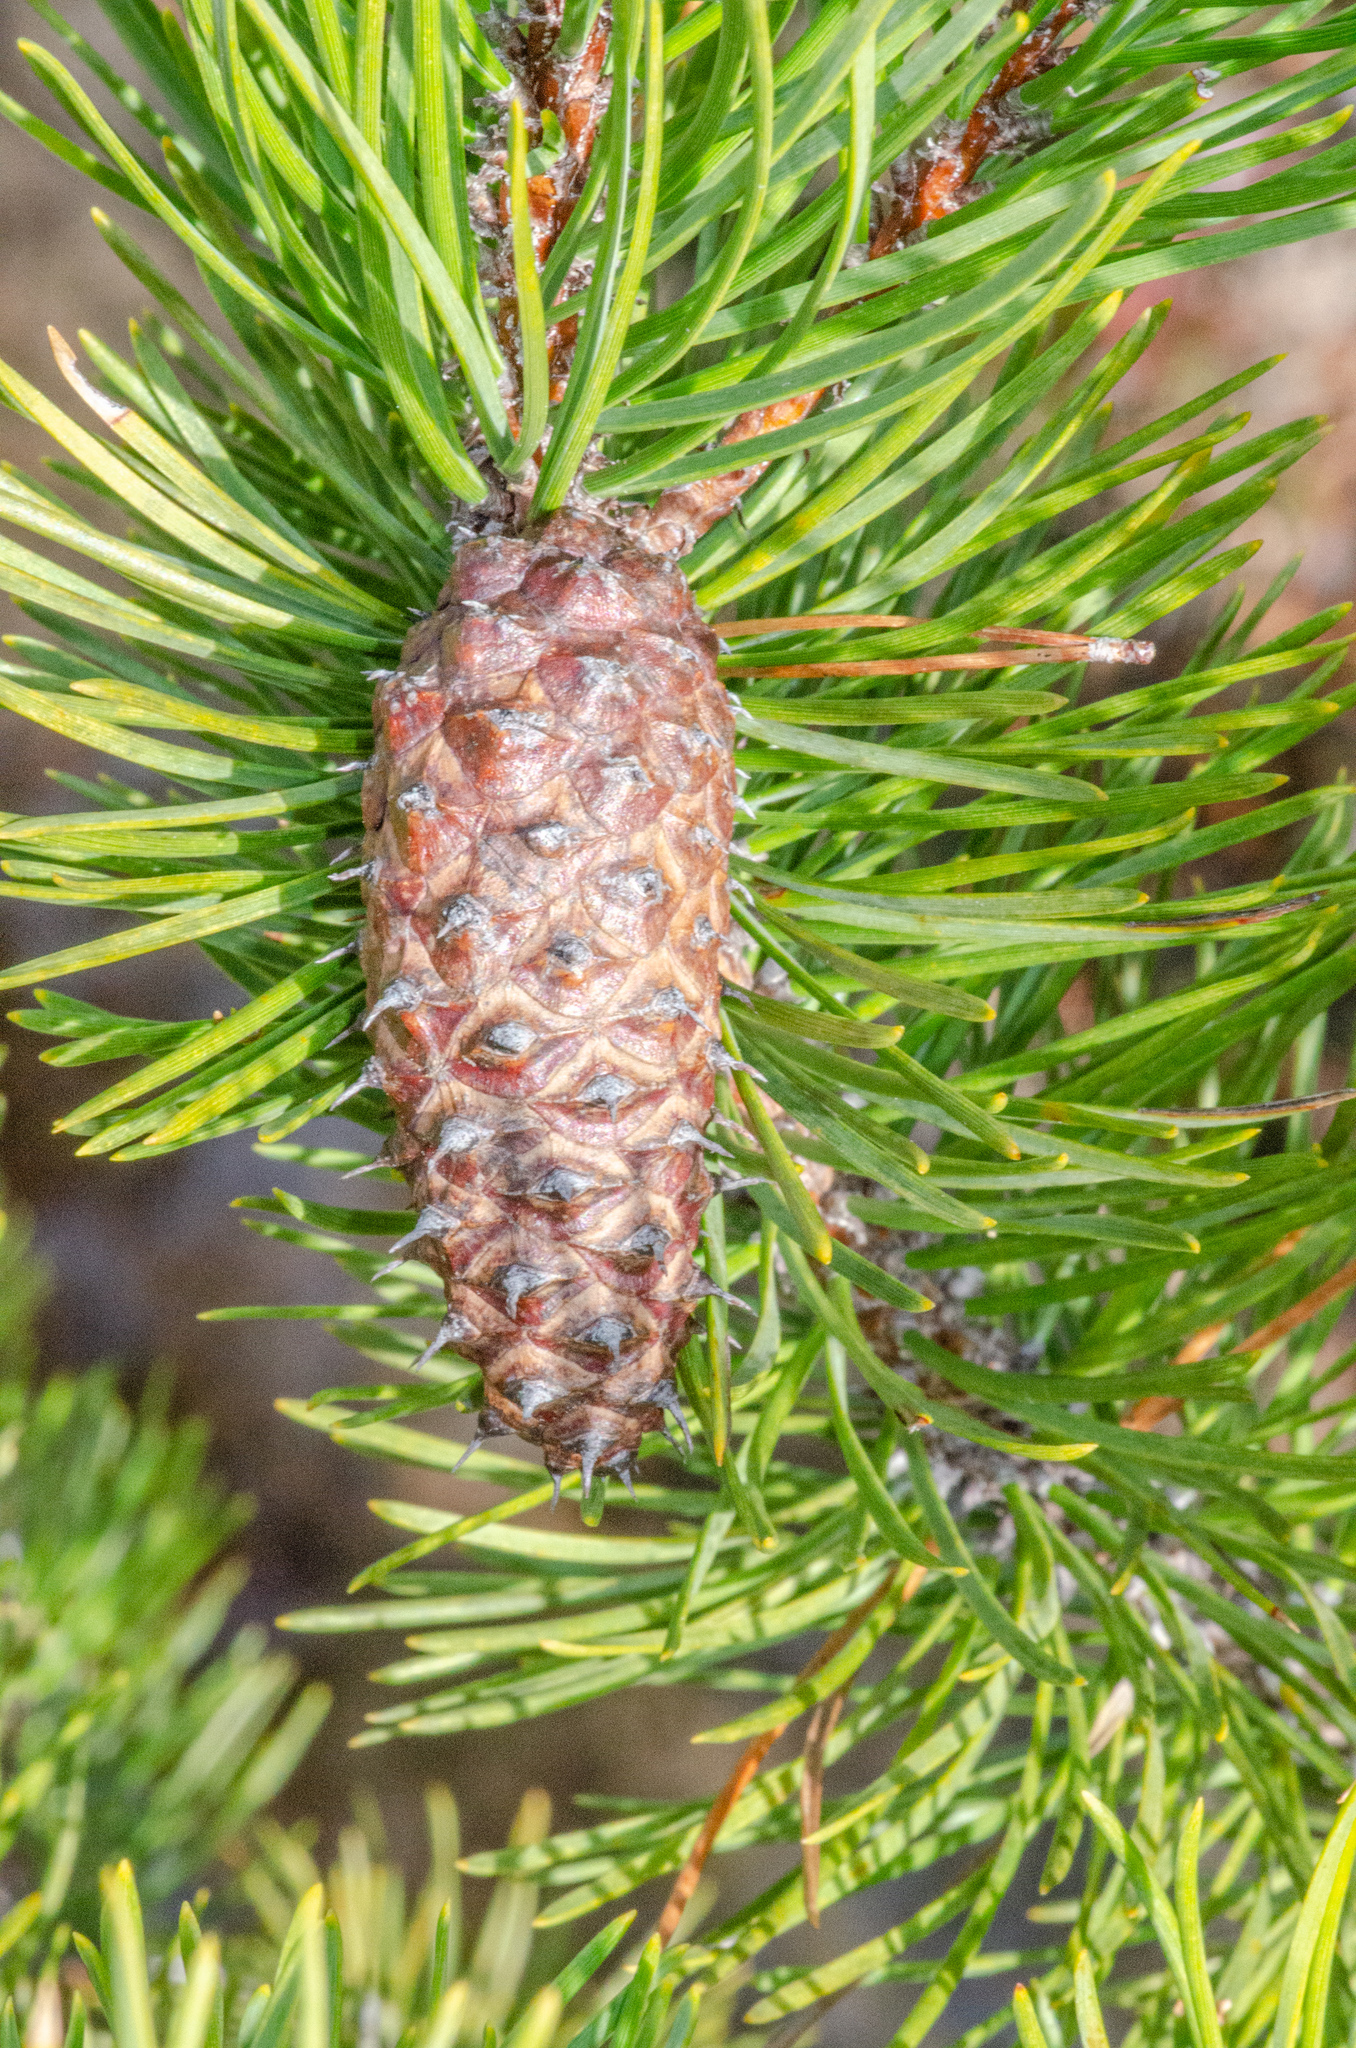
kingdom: Plantae
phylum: Tracheophyta
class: Pinopsida
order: Pinales
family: Pinaceae
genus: Pinus
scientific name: Pinus contorta
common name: Lodgepole pine
